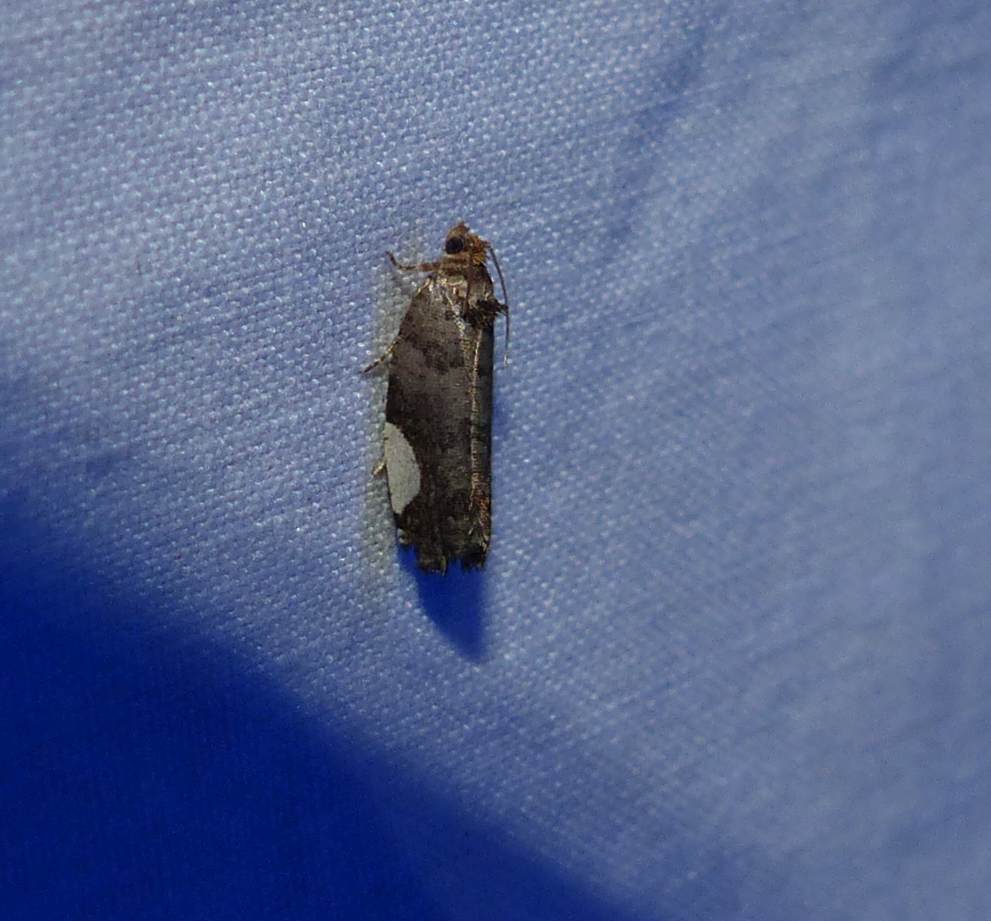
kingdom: Animalia
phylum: Arthropoda
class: Insecta
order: Lepidoptera
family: Tortricidae
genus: Hedya
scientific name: Hedya chionosema
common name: White-spotted hedya moth
